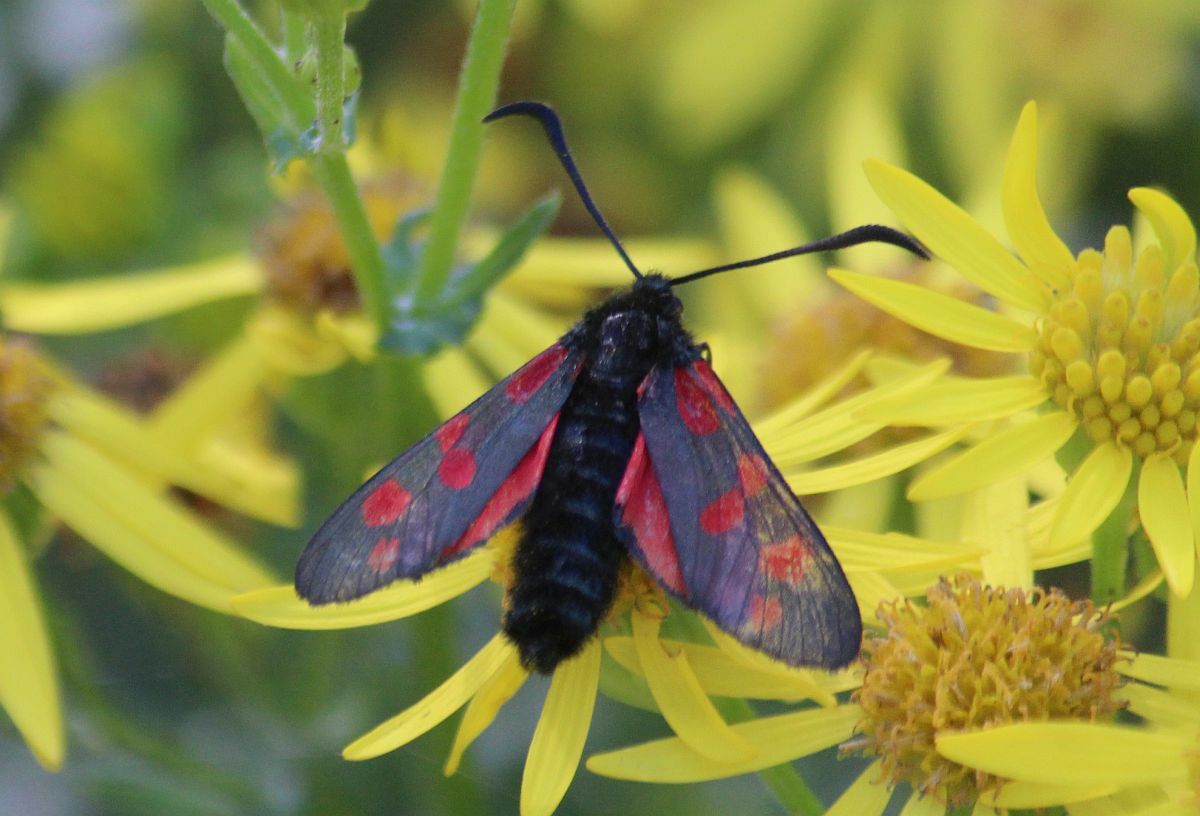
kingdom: Animalia
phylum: Arthropoda
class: Insecta
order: Lepidoptera
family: Zygaenidae
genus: Zygaena
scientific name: Zygaena filipendulae
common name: Six-spot burnet
